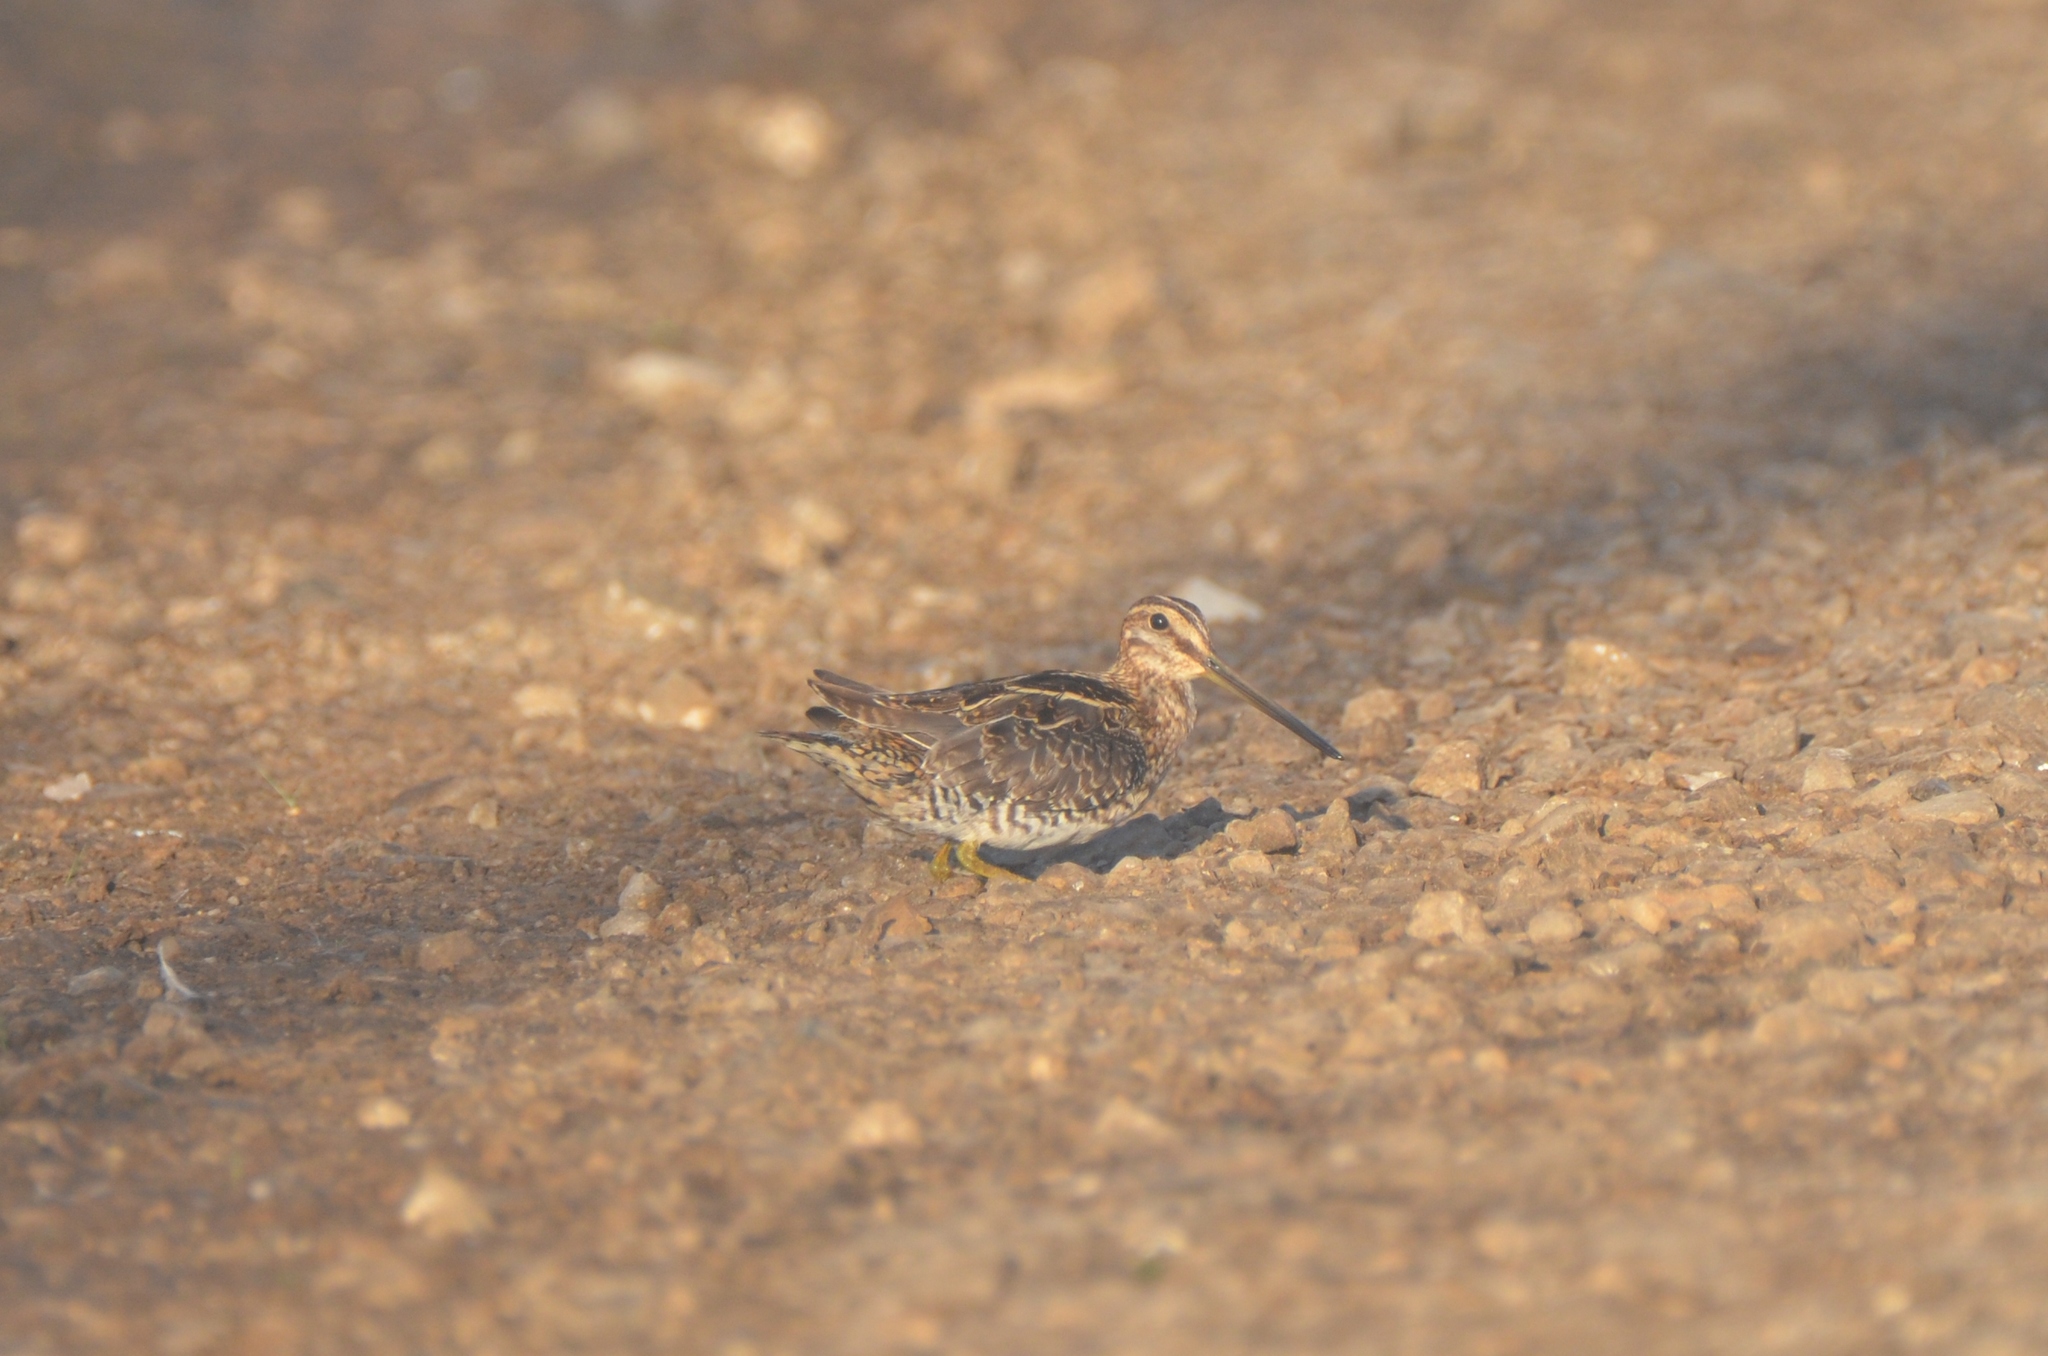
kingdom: Animalia
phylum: Chordata
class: Aves
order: Charadriiformes
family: Scolopacidae
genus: Gallinago
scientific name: Gallinago delicata
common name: Wilson's snipe
